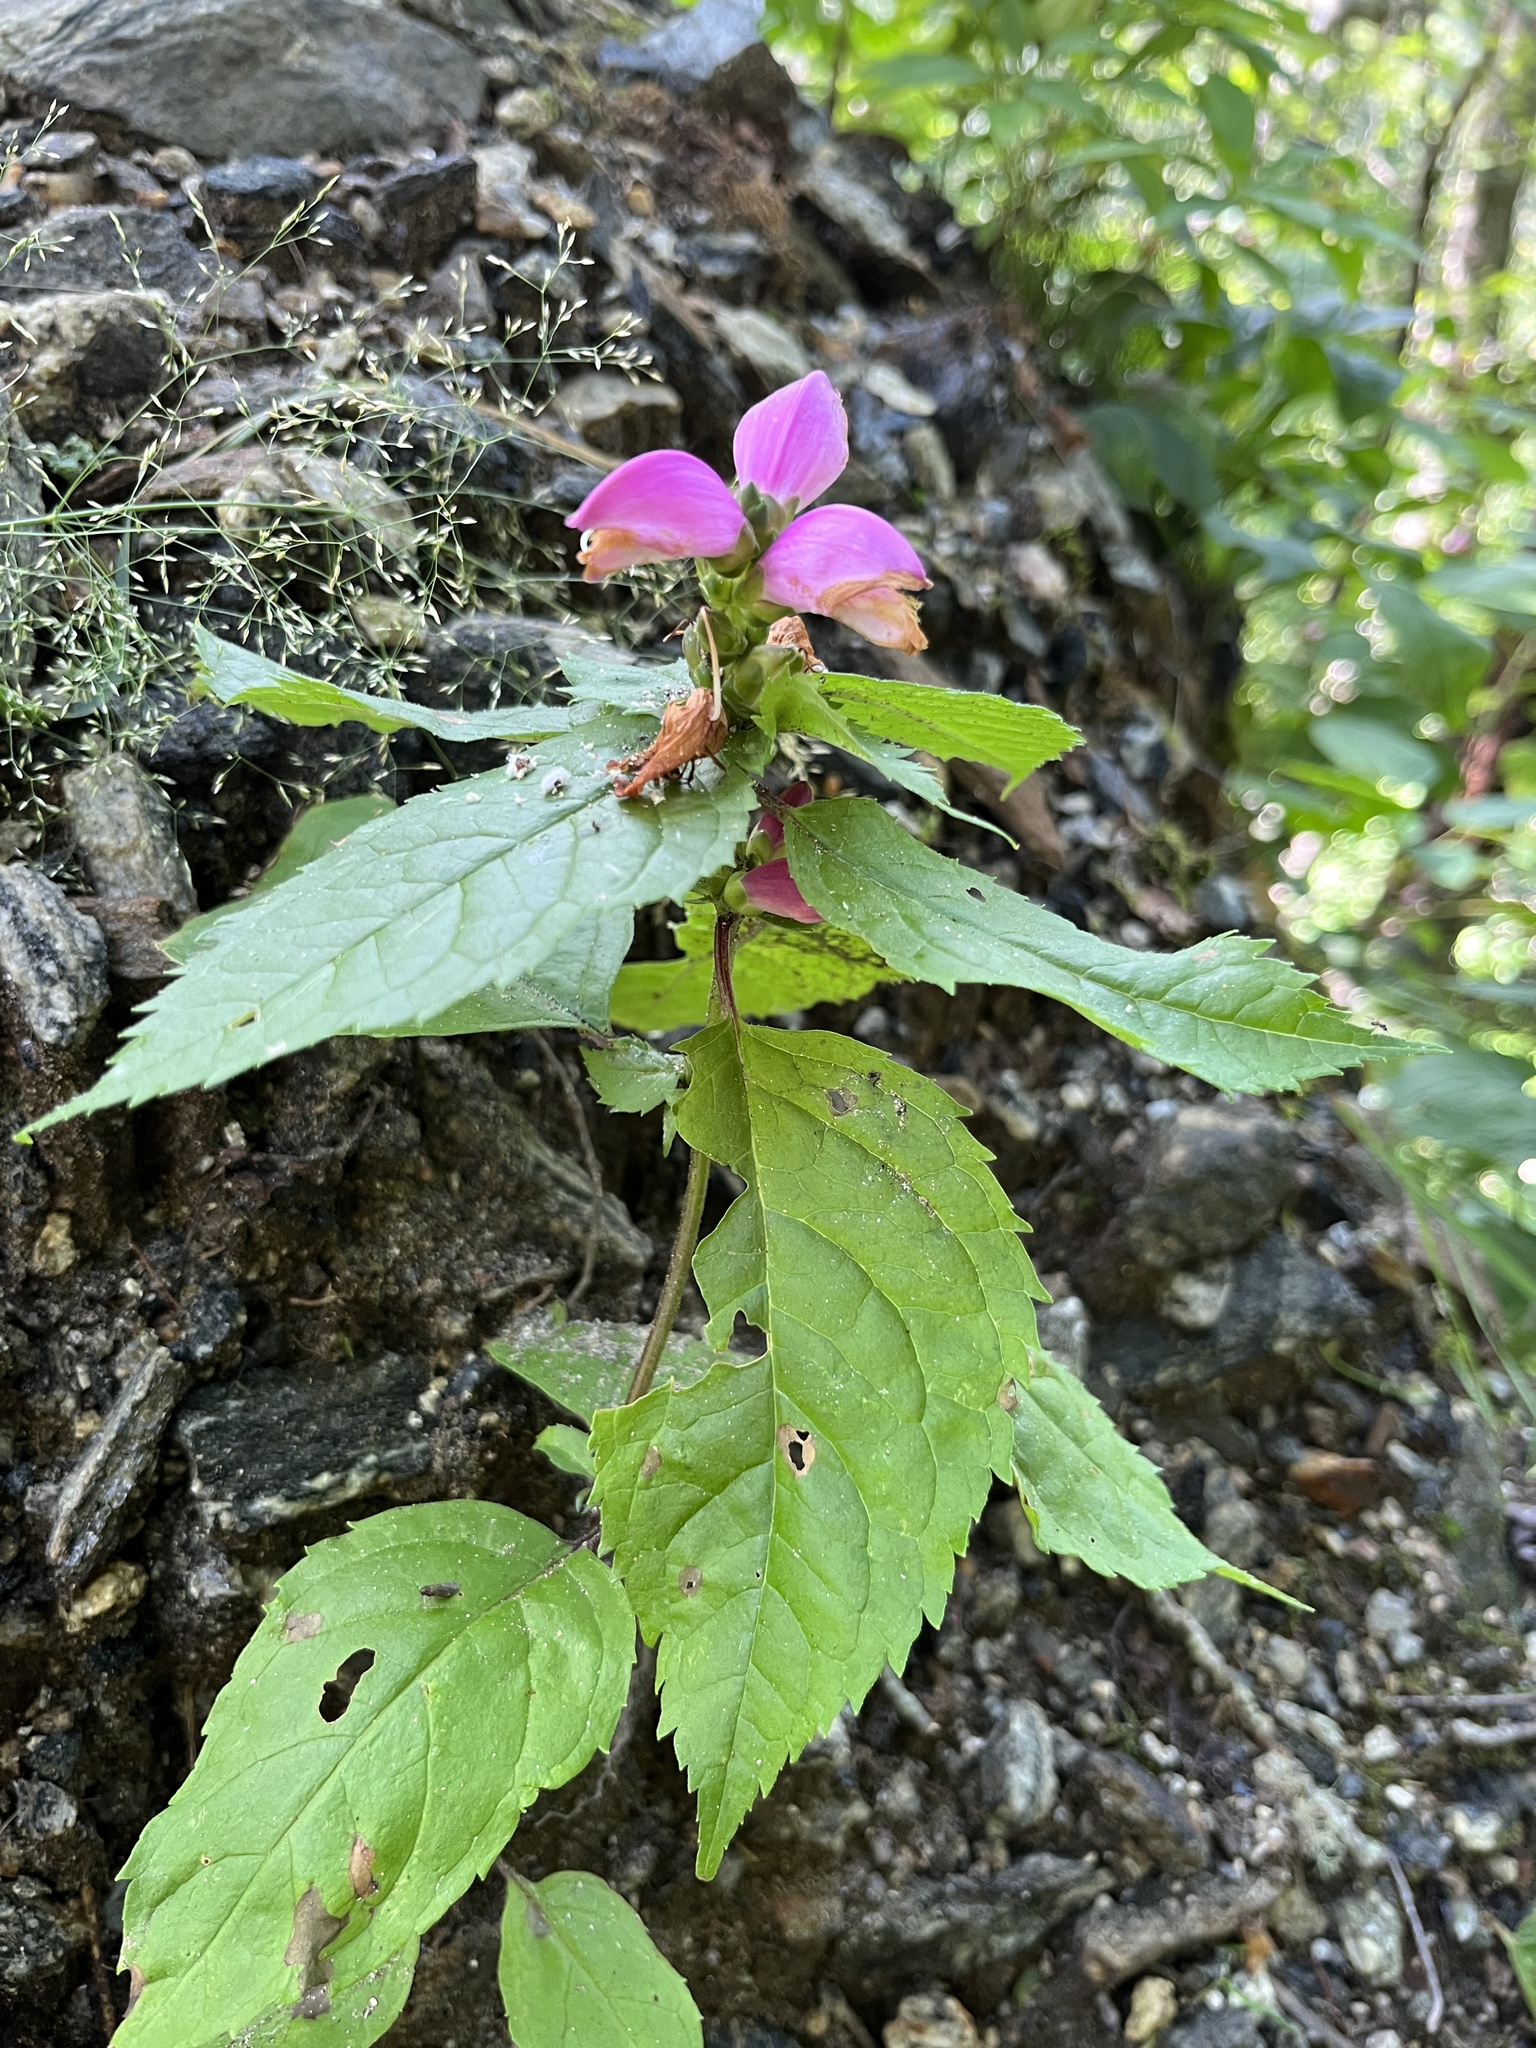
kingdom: Plantae
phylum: Tracheophyta
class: Magnoliopsida
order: Lamiales
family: Plantaginaceae
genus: Chelone
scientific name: Chelone lyonii
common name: Pink turtlehead
